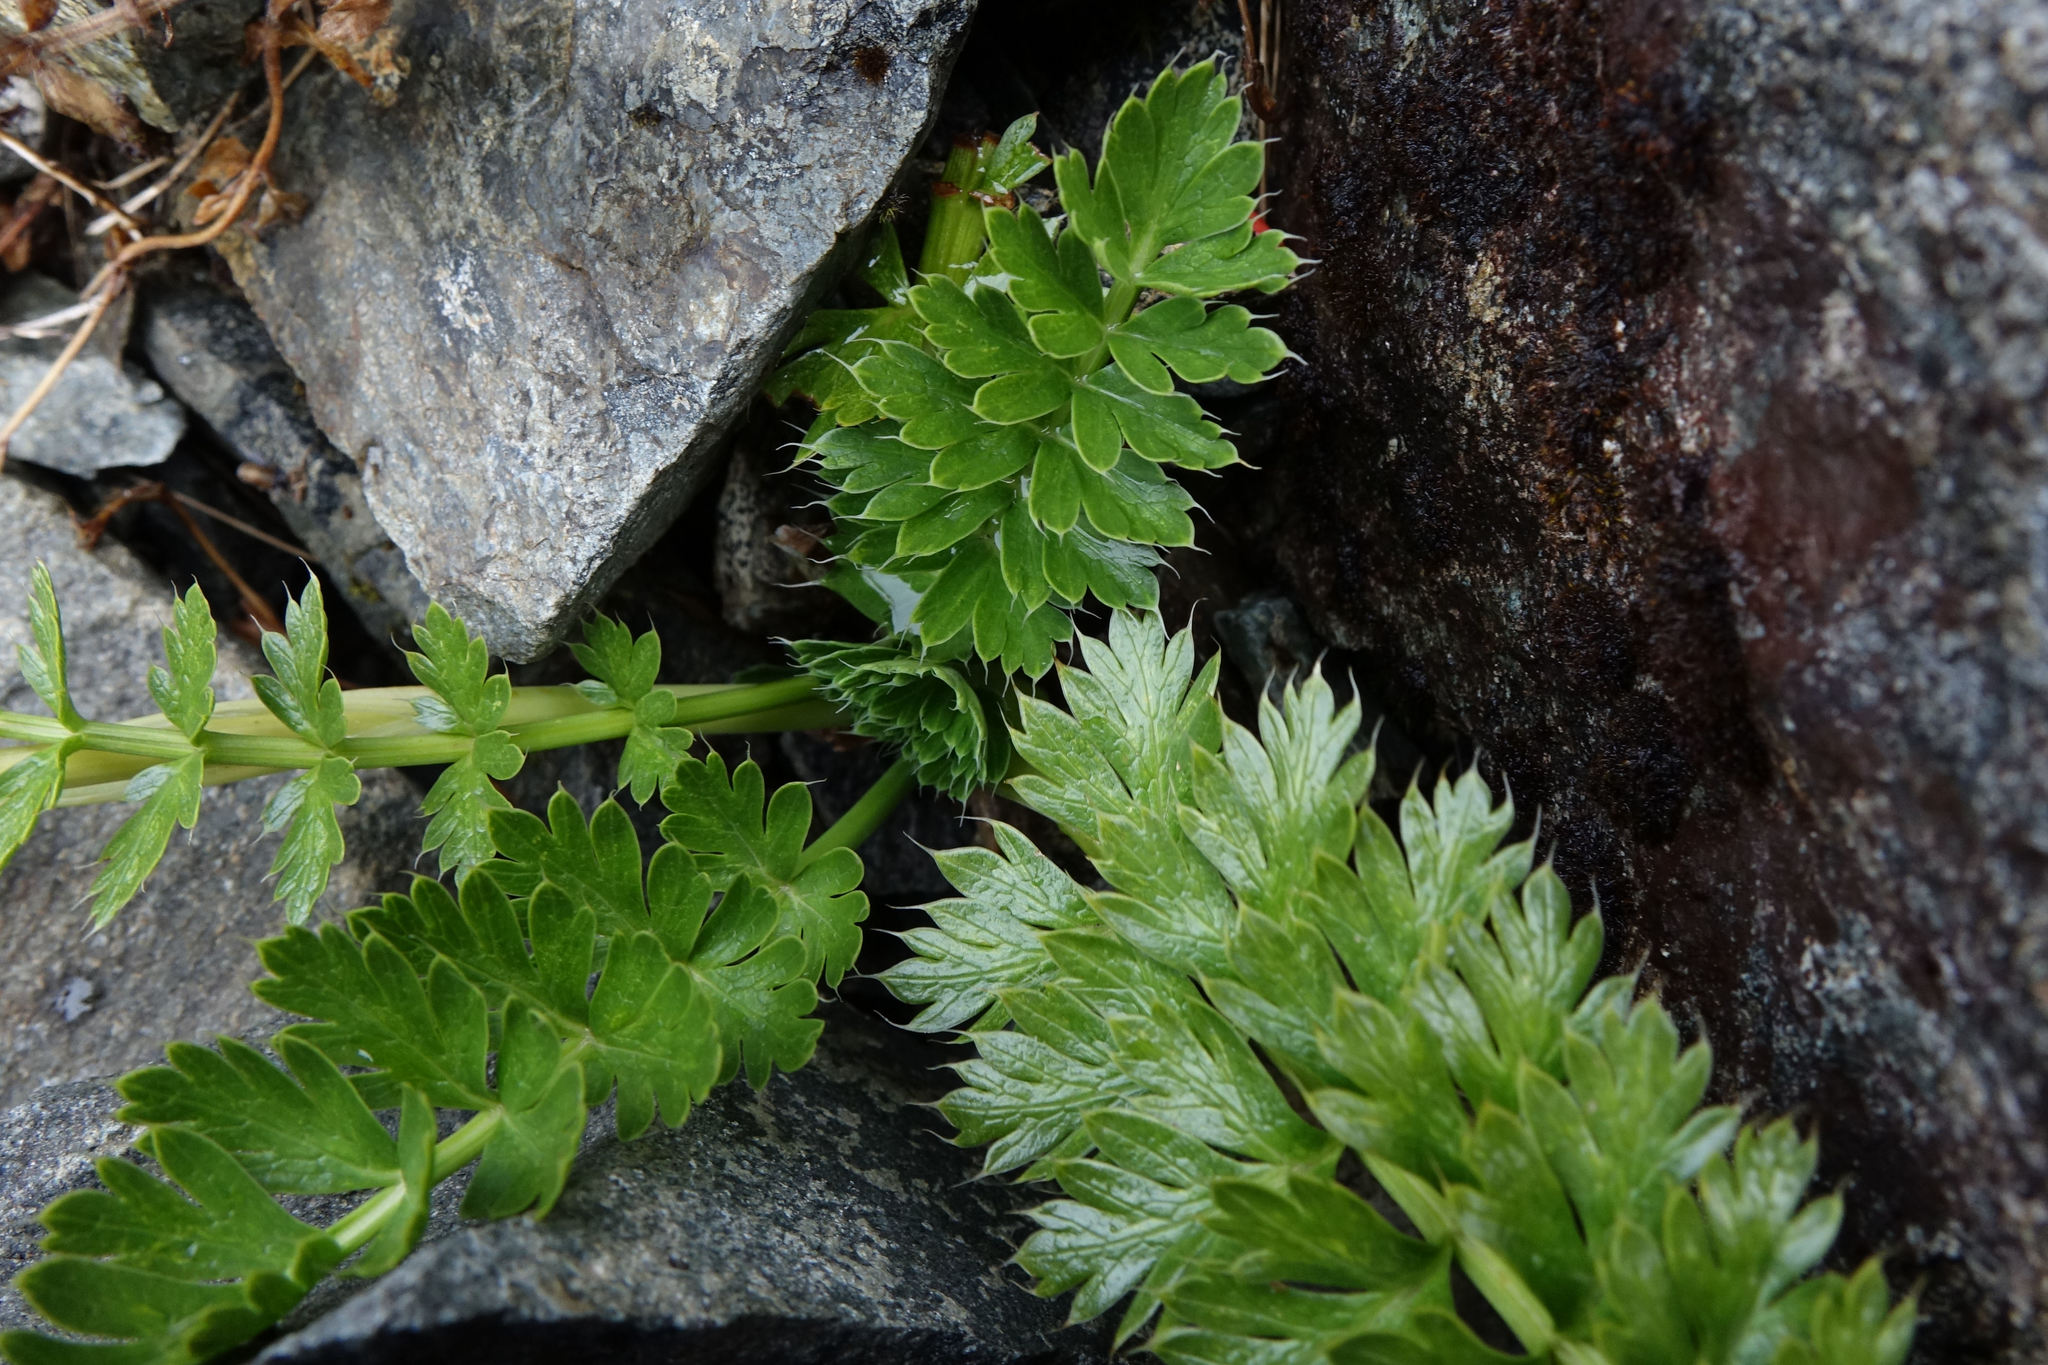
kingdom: Plantae
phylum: Tracheophyta
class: Magnoliopsida
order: Apiales
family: Apiaceae
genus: Anisotome
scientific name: Anisotome pilifera
